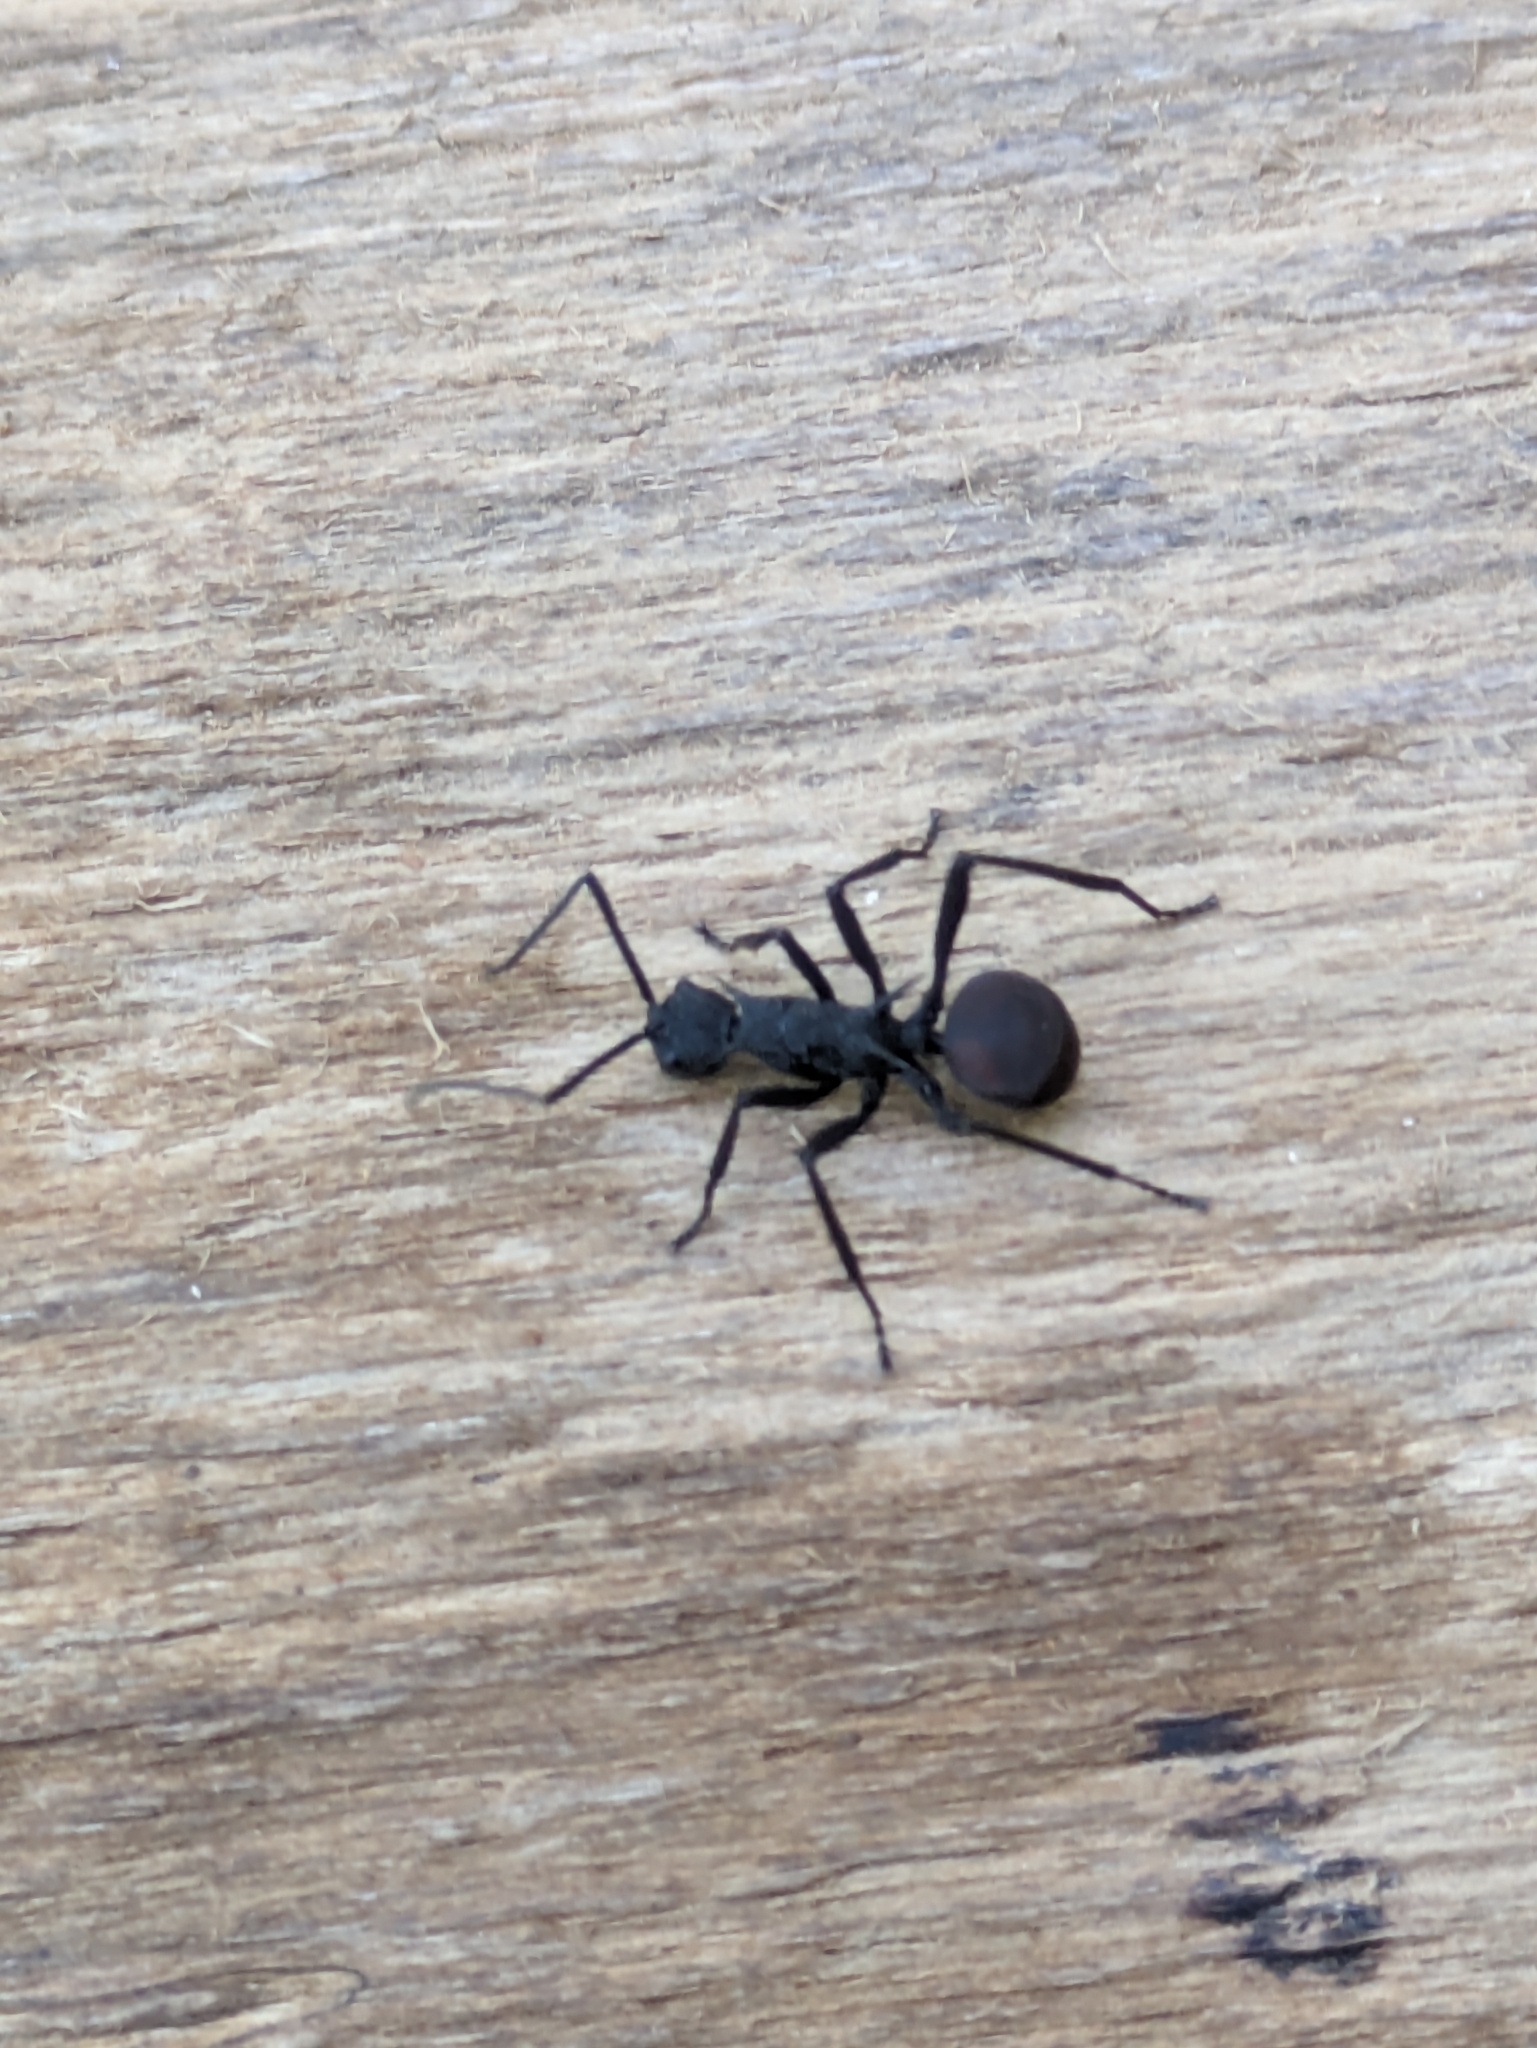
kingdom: Animalia
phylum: Arthropoda
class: Insecta
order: Hymenoptera
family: Formicidae
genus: Polyrhachis
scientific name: Polyrhachis armata
